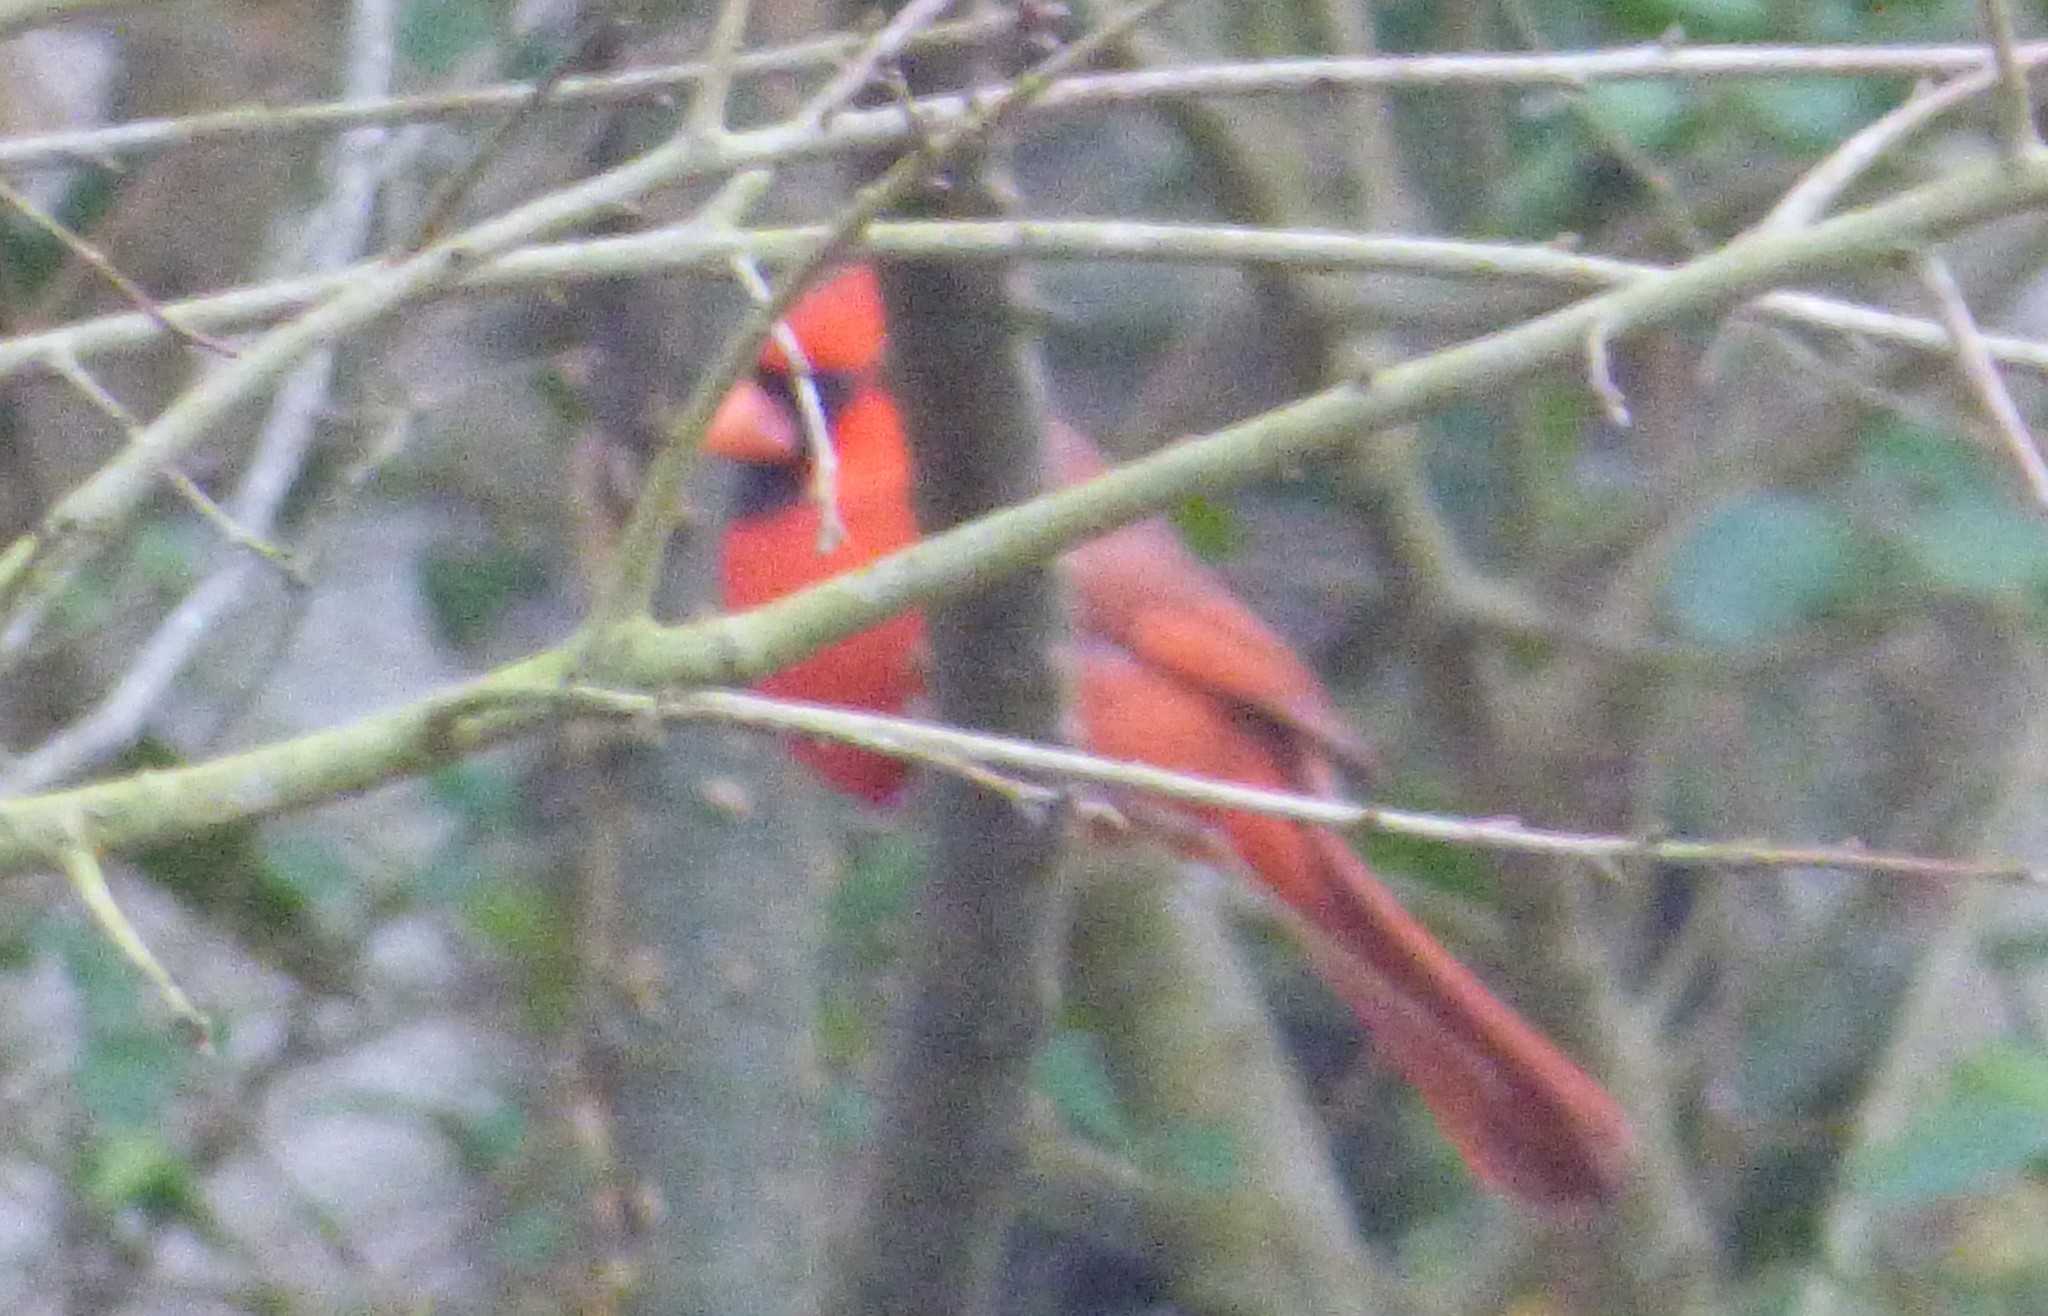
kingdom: Animalia
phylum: Chordata
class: Aves
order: Passeriformes
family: Cardinalidae
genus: Cardinalis
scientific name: Cardinalis cardinalis
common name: Northern cardinal
